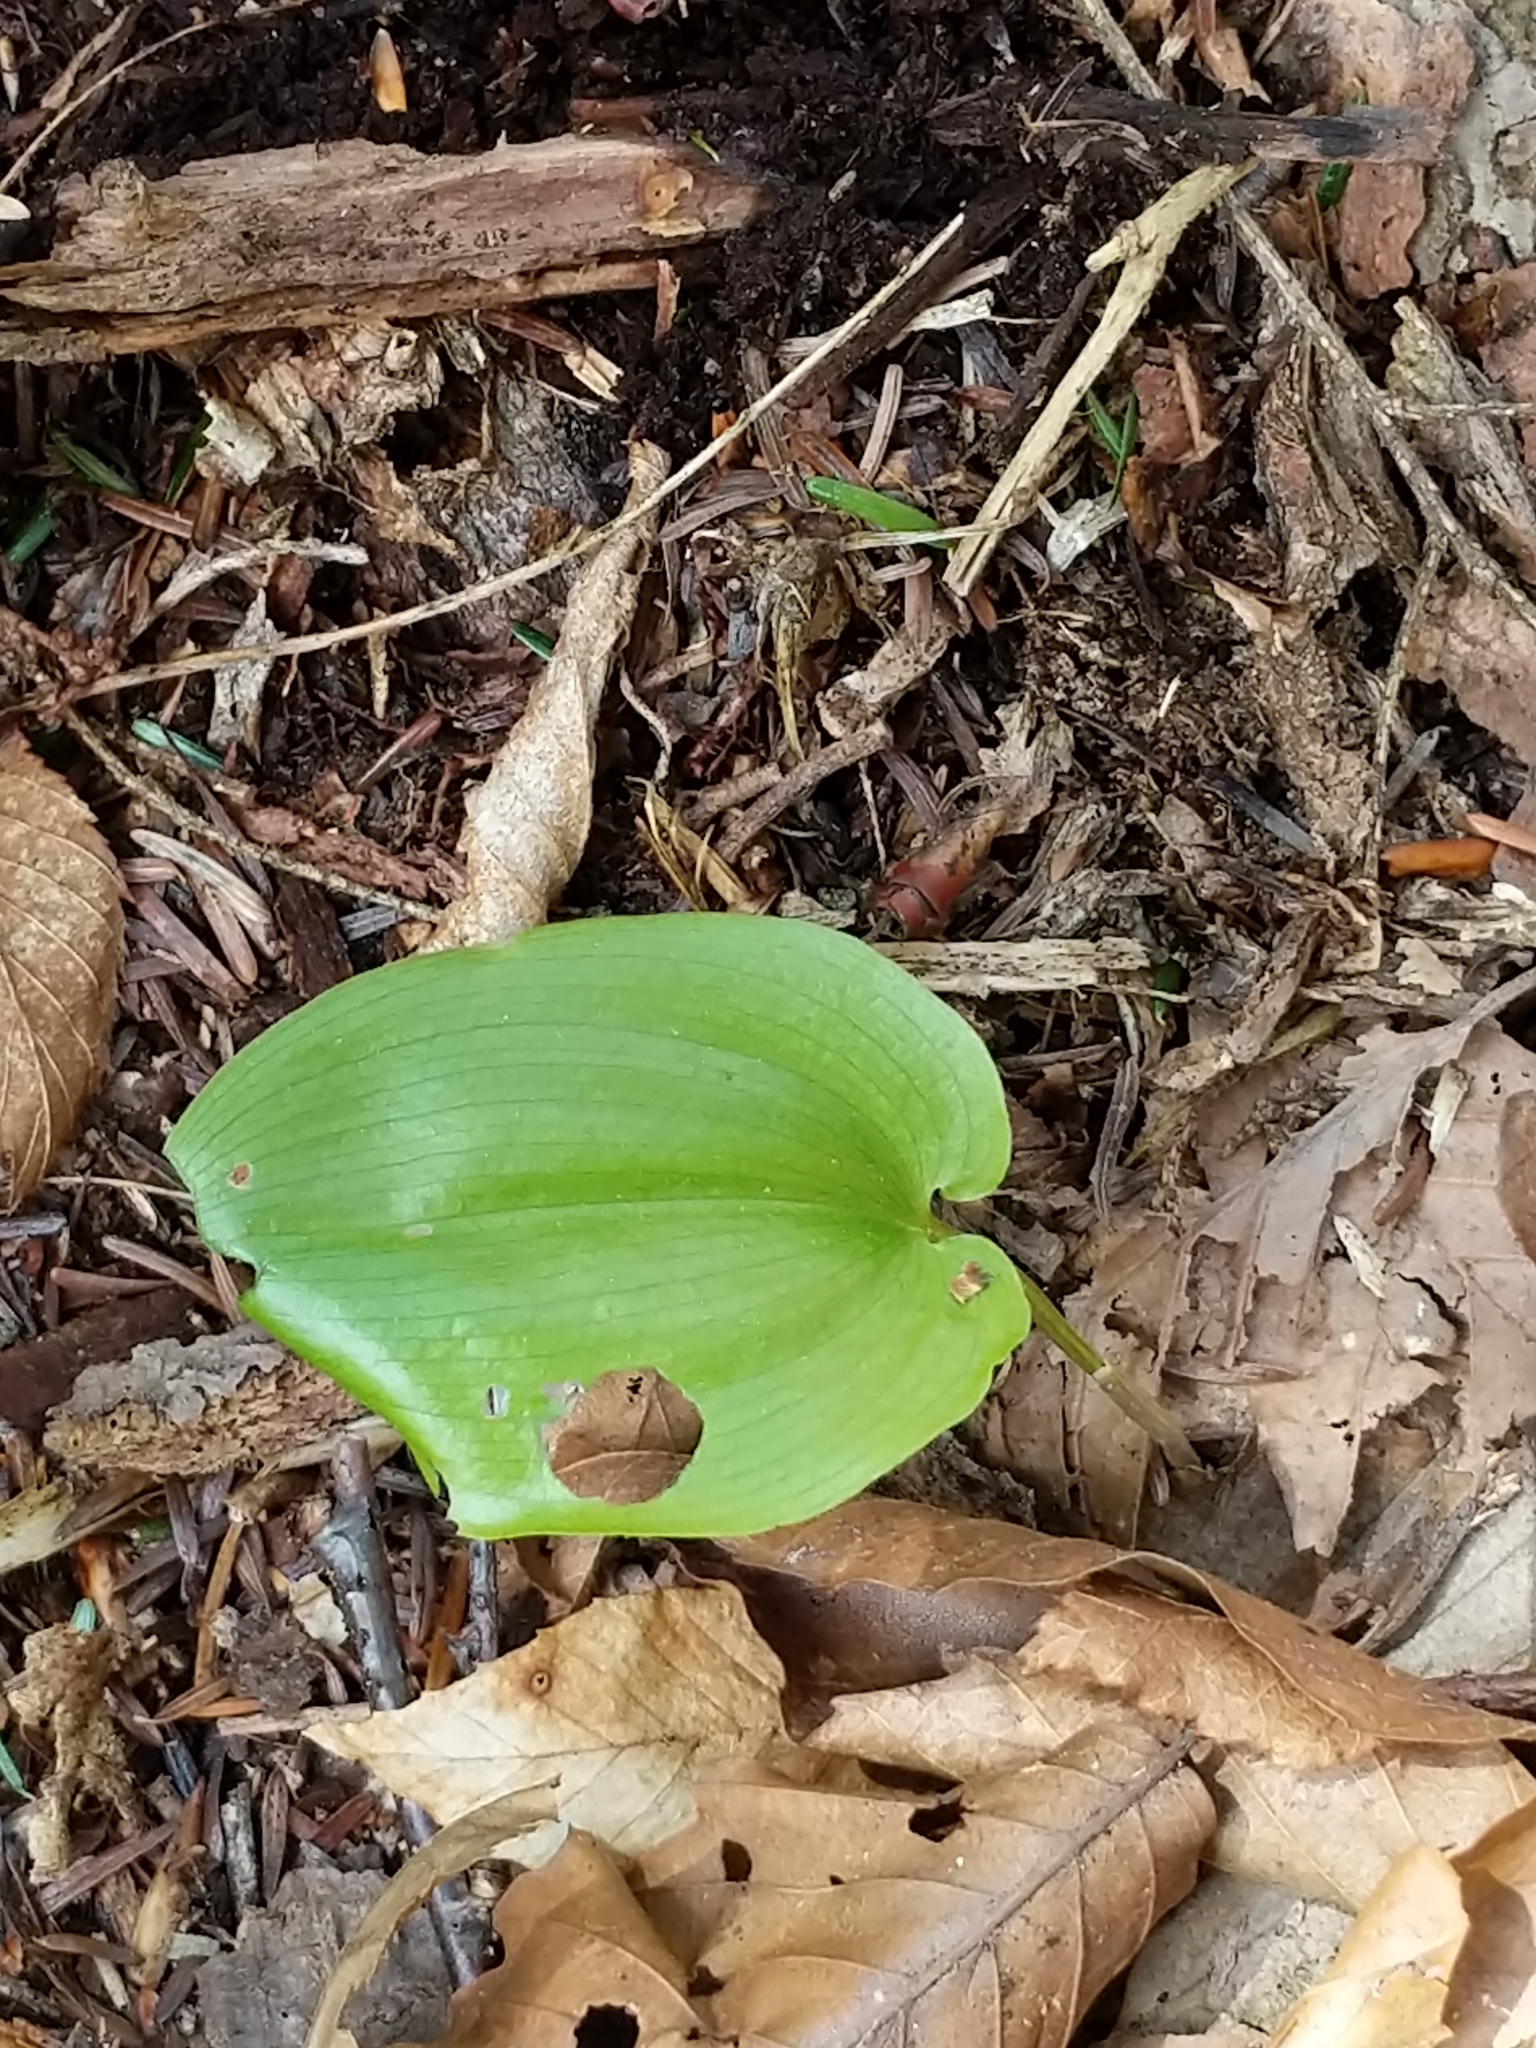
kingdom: Plantae
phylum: Tracheophyta
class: Liliopsida
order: Asparagales
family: Asparagaceae
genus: Maianthemum
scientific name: Maianthemum canadense
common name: False lily-of-the-valley
